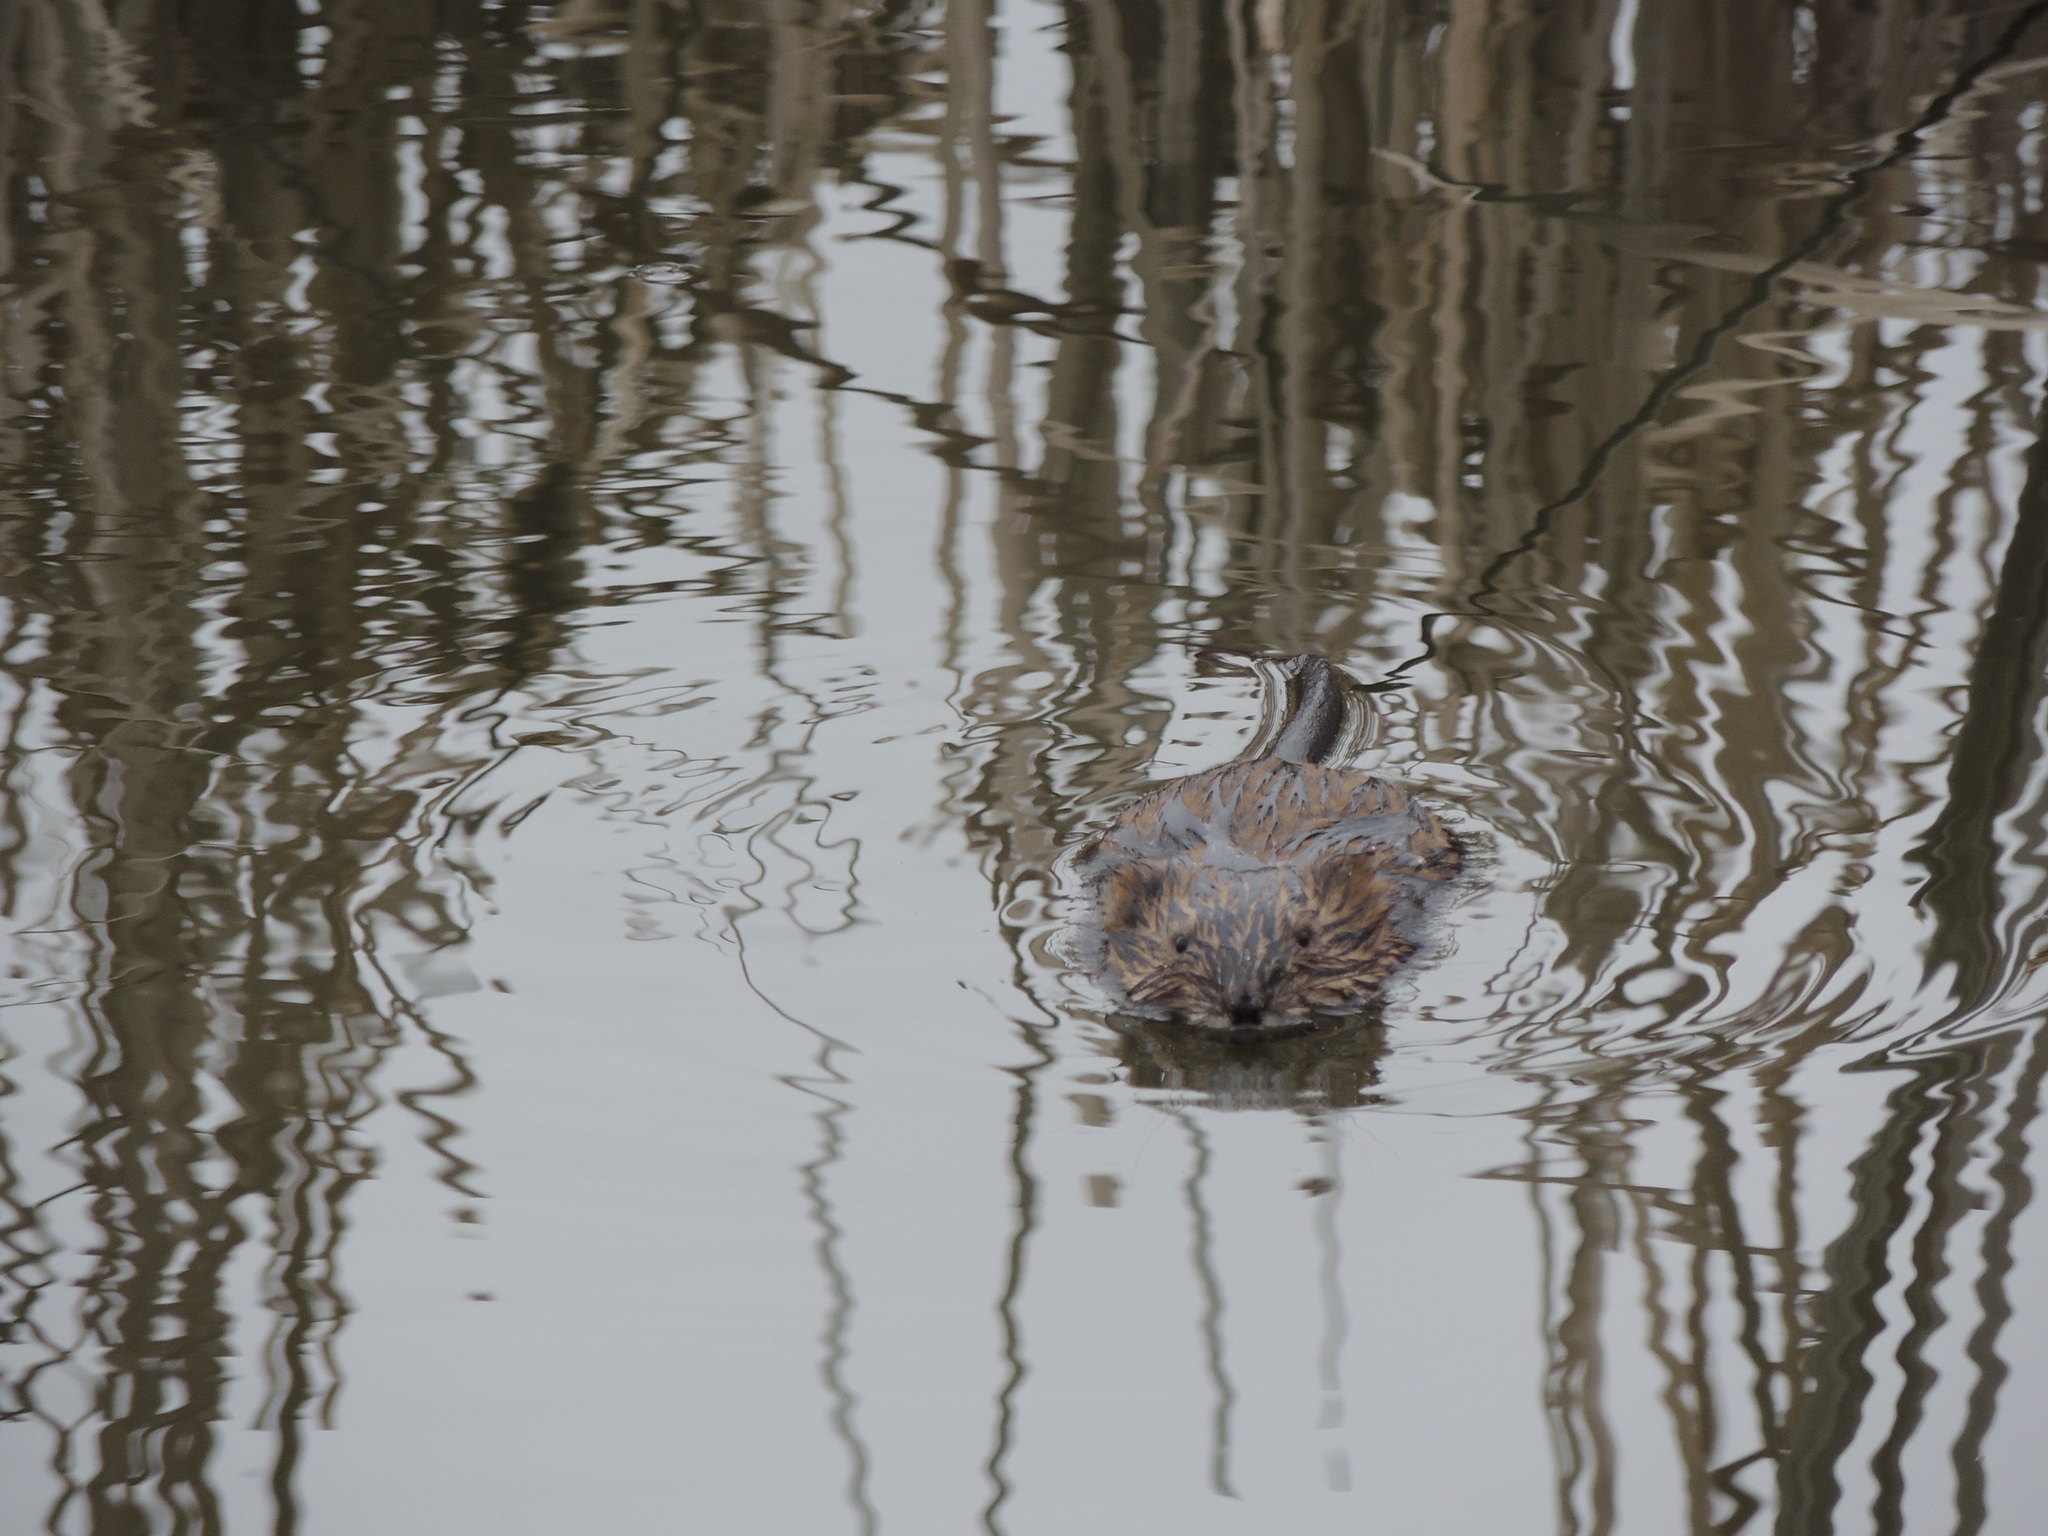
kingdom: Animalia
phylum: Chordata
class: Mammalia
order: Rodentia
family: Cricetidae
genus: Ondatra
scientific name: Ondatra zibethicus
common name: Muskrat
